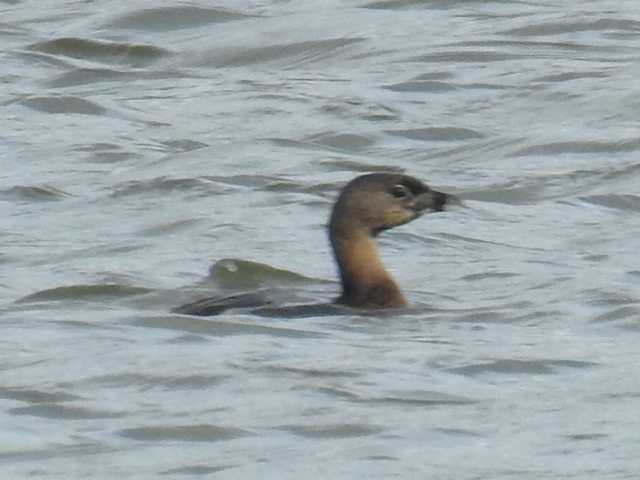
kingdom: Animalia
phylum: Chordata
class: Aves
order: Podicipediformes
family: Podicipedidae
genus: Podilymbus
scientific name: Podilymbus podiceps
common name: Pied-billed grebe
